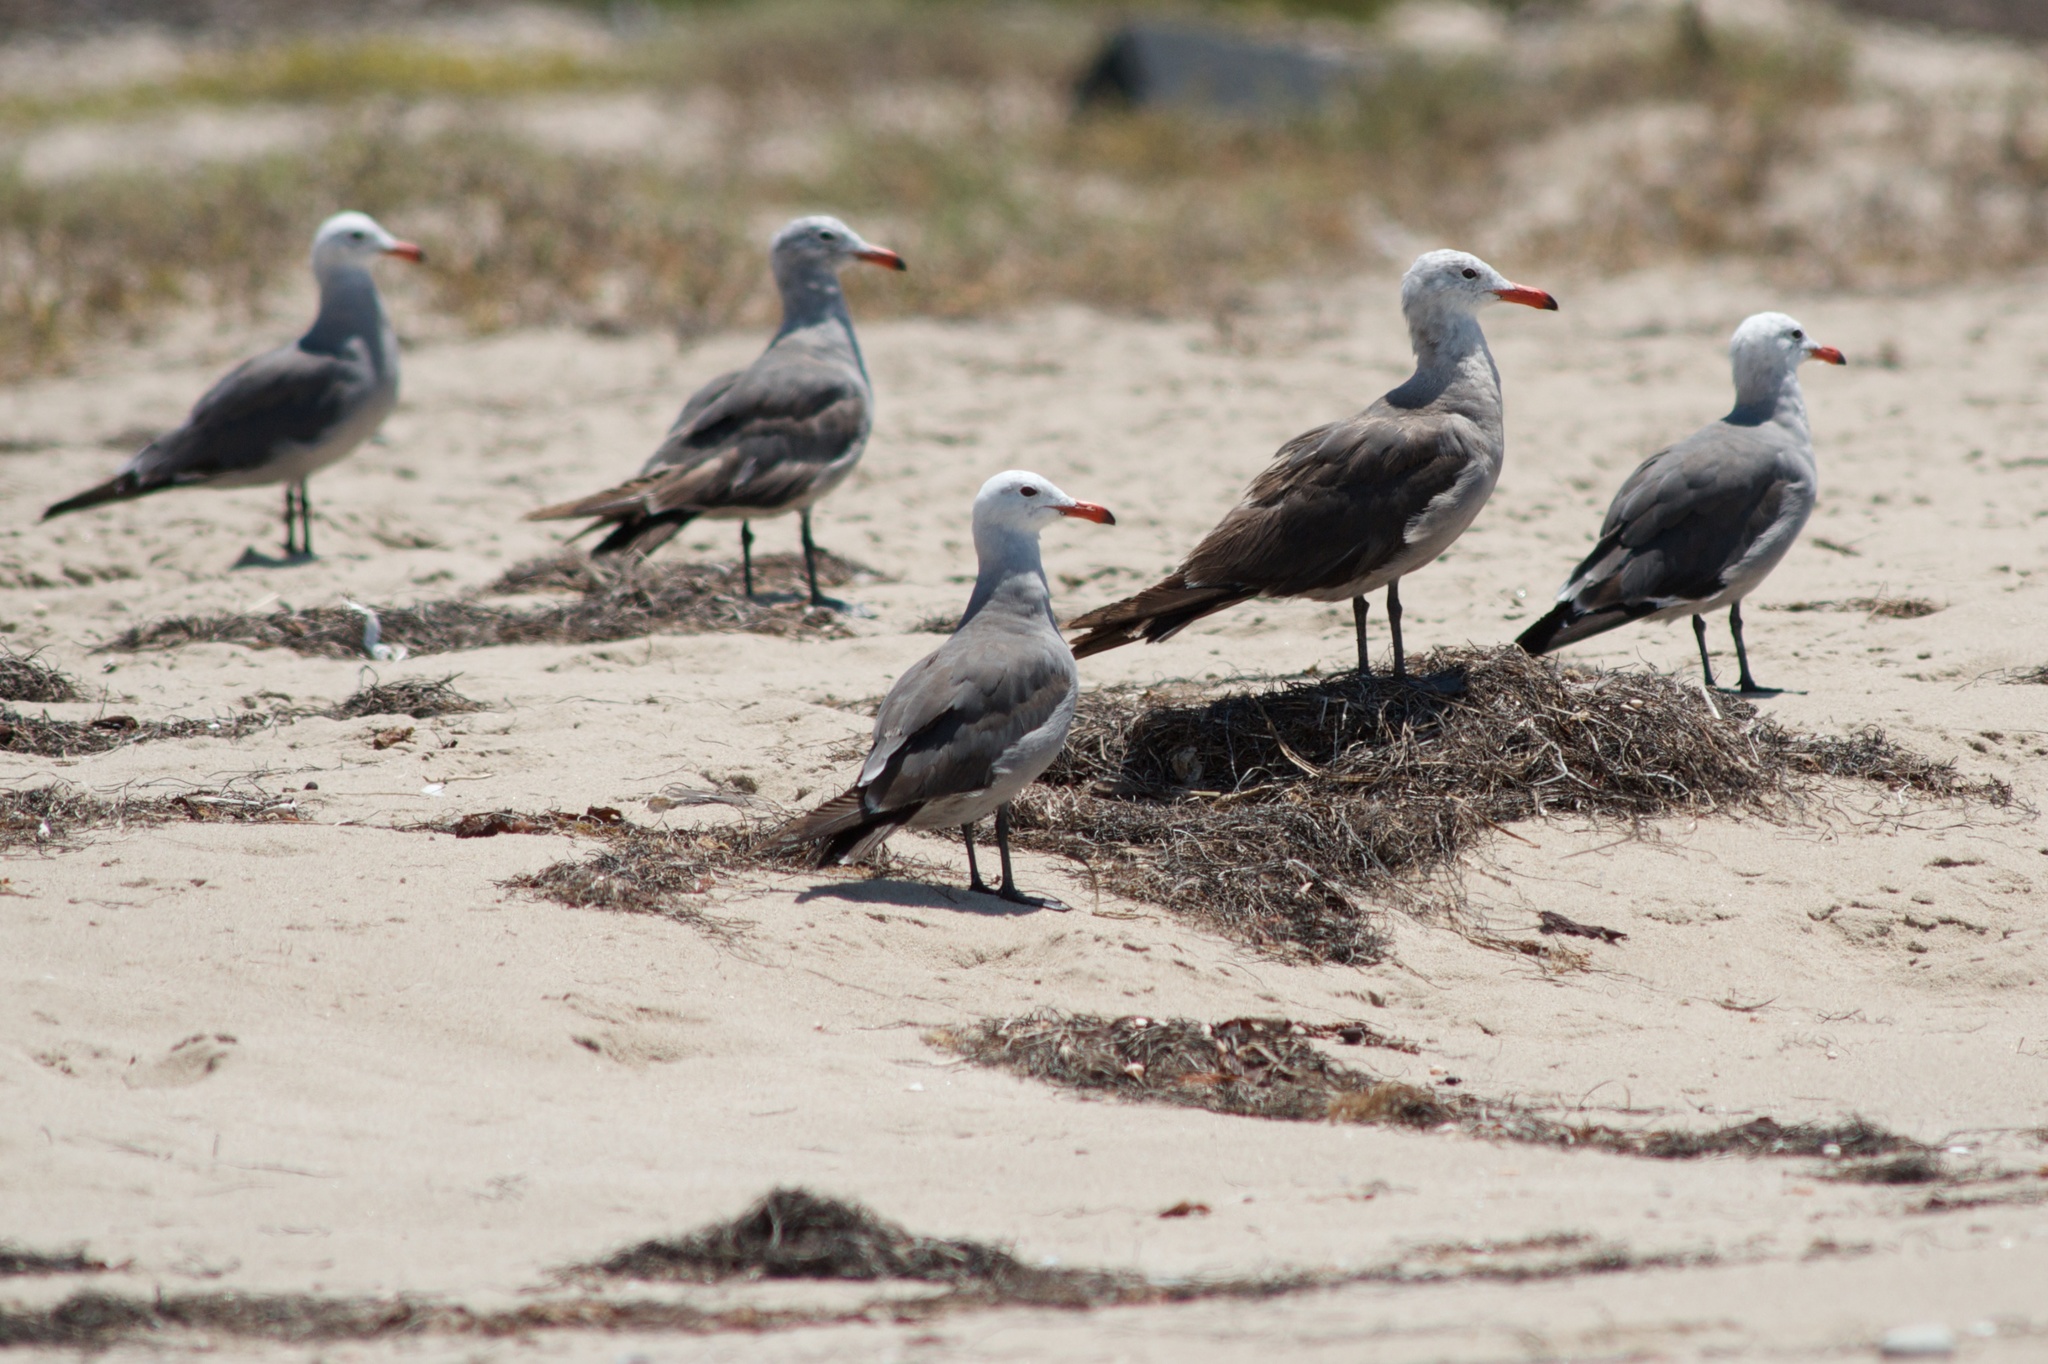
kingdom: Animalia
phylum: Chordata
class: Aves
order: Charadriiformes
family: Laridae
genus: Larus
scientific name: Larus heermanni
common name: Heermann's gull
